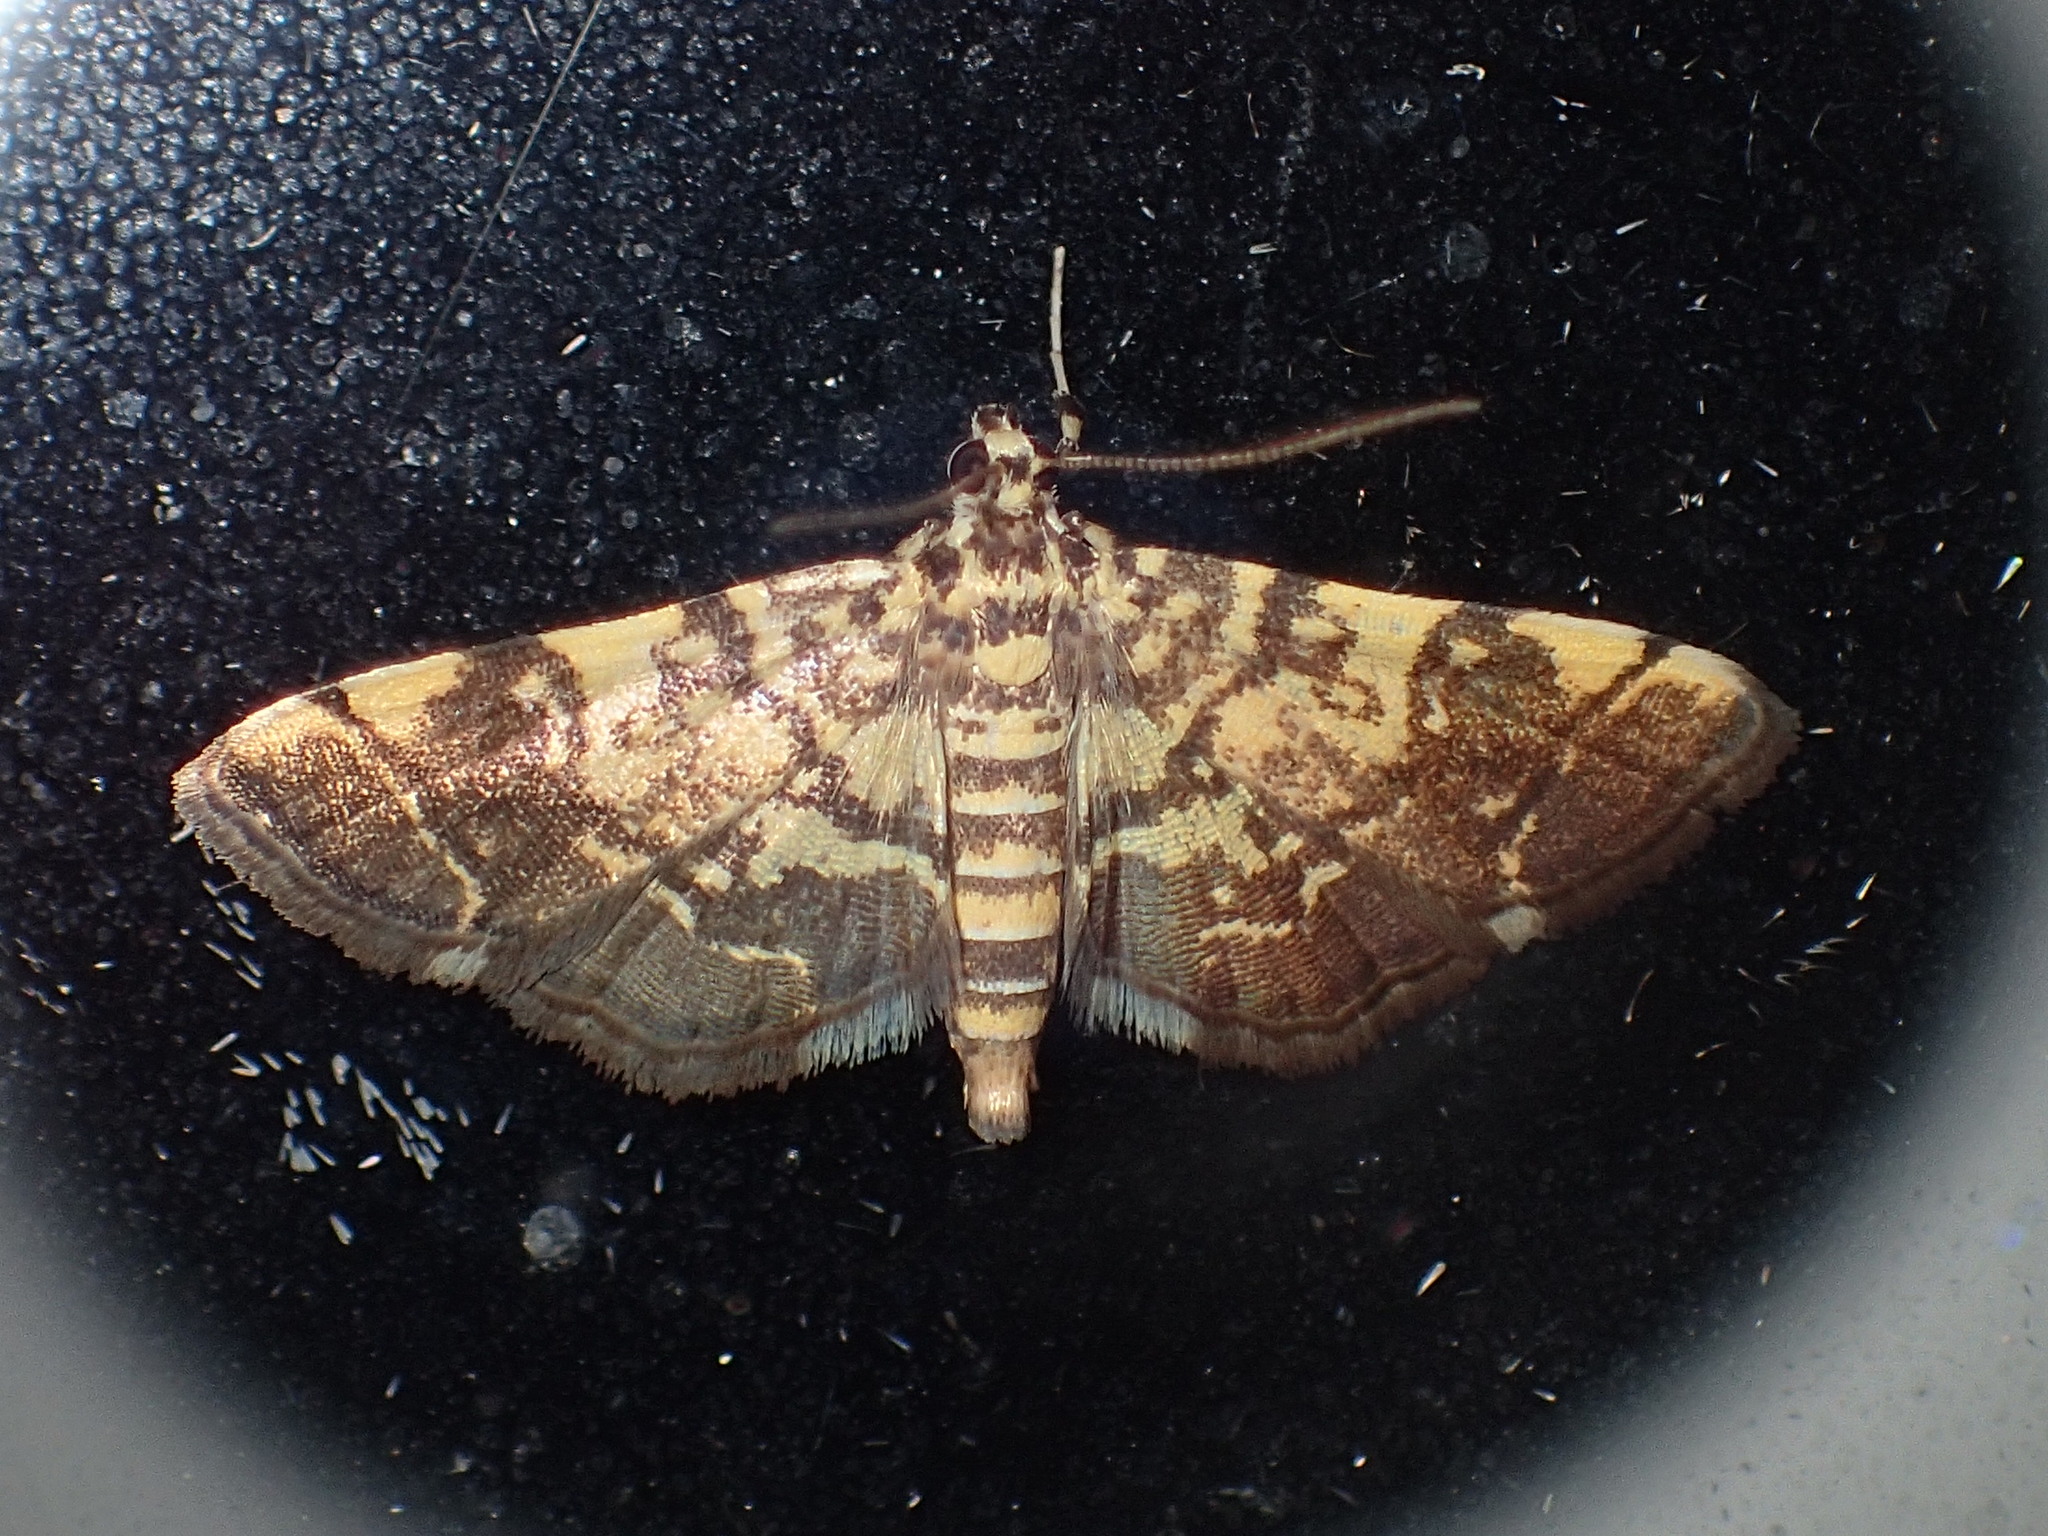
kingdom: Animalia
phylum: Arthropoda
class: Insecta
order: Lepidoptera
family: Crambidae
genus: Anageshna
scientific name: Anageshna primordialis
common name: Yellow-spotted webworm moth
